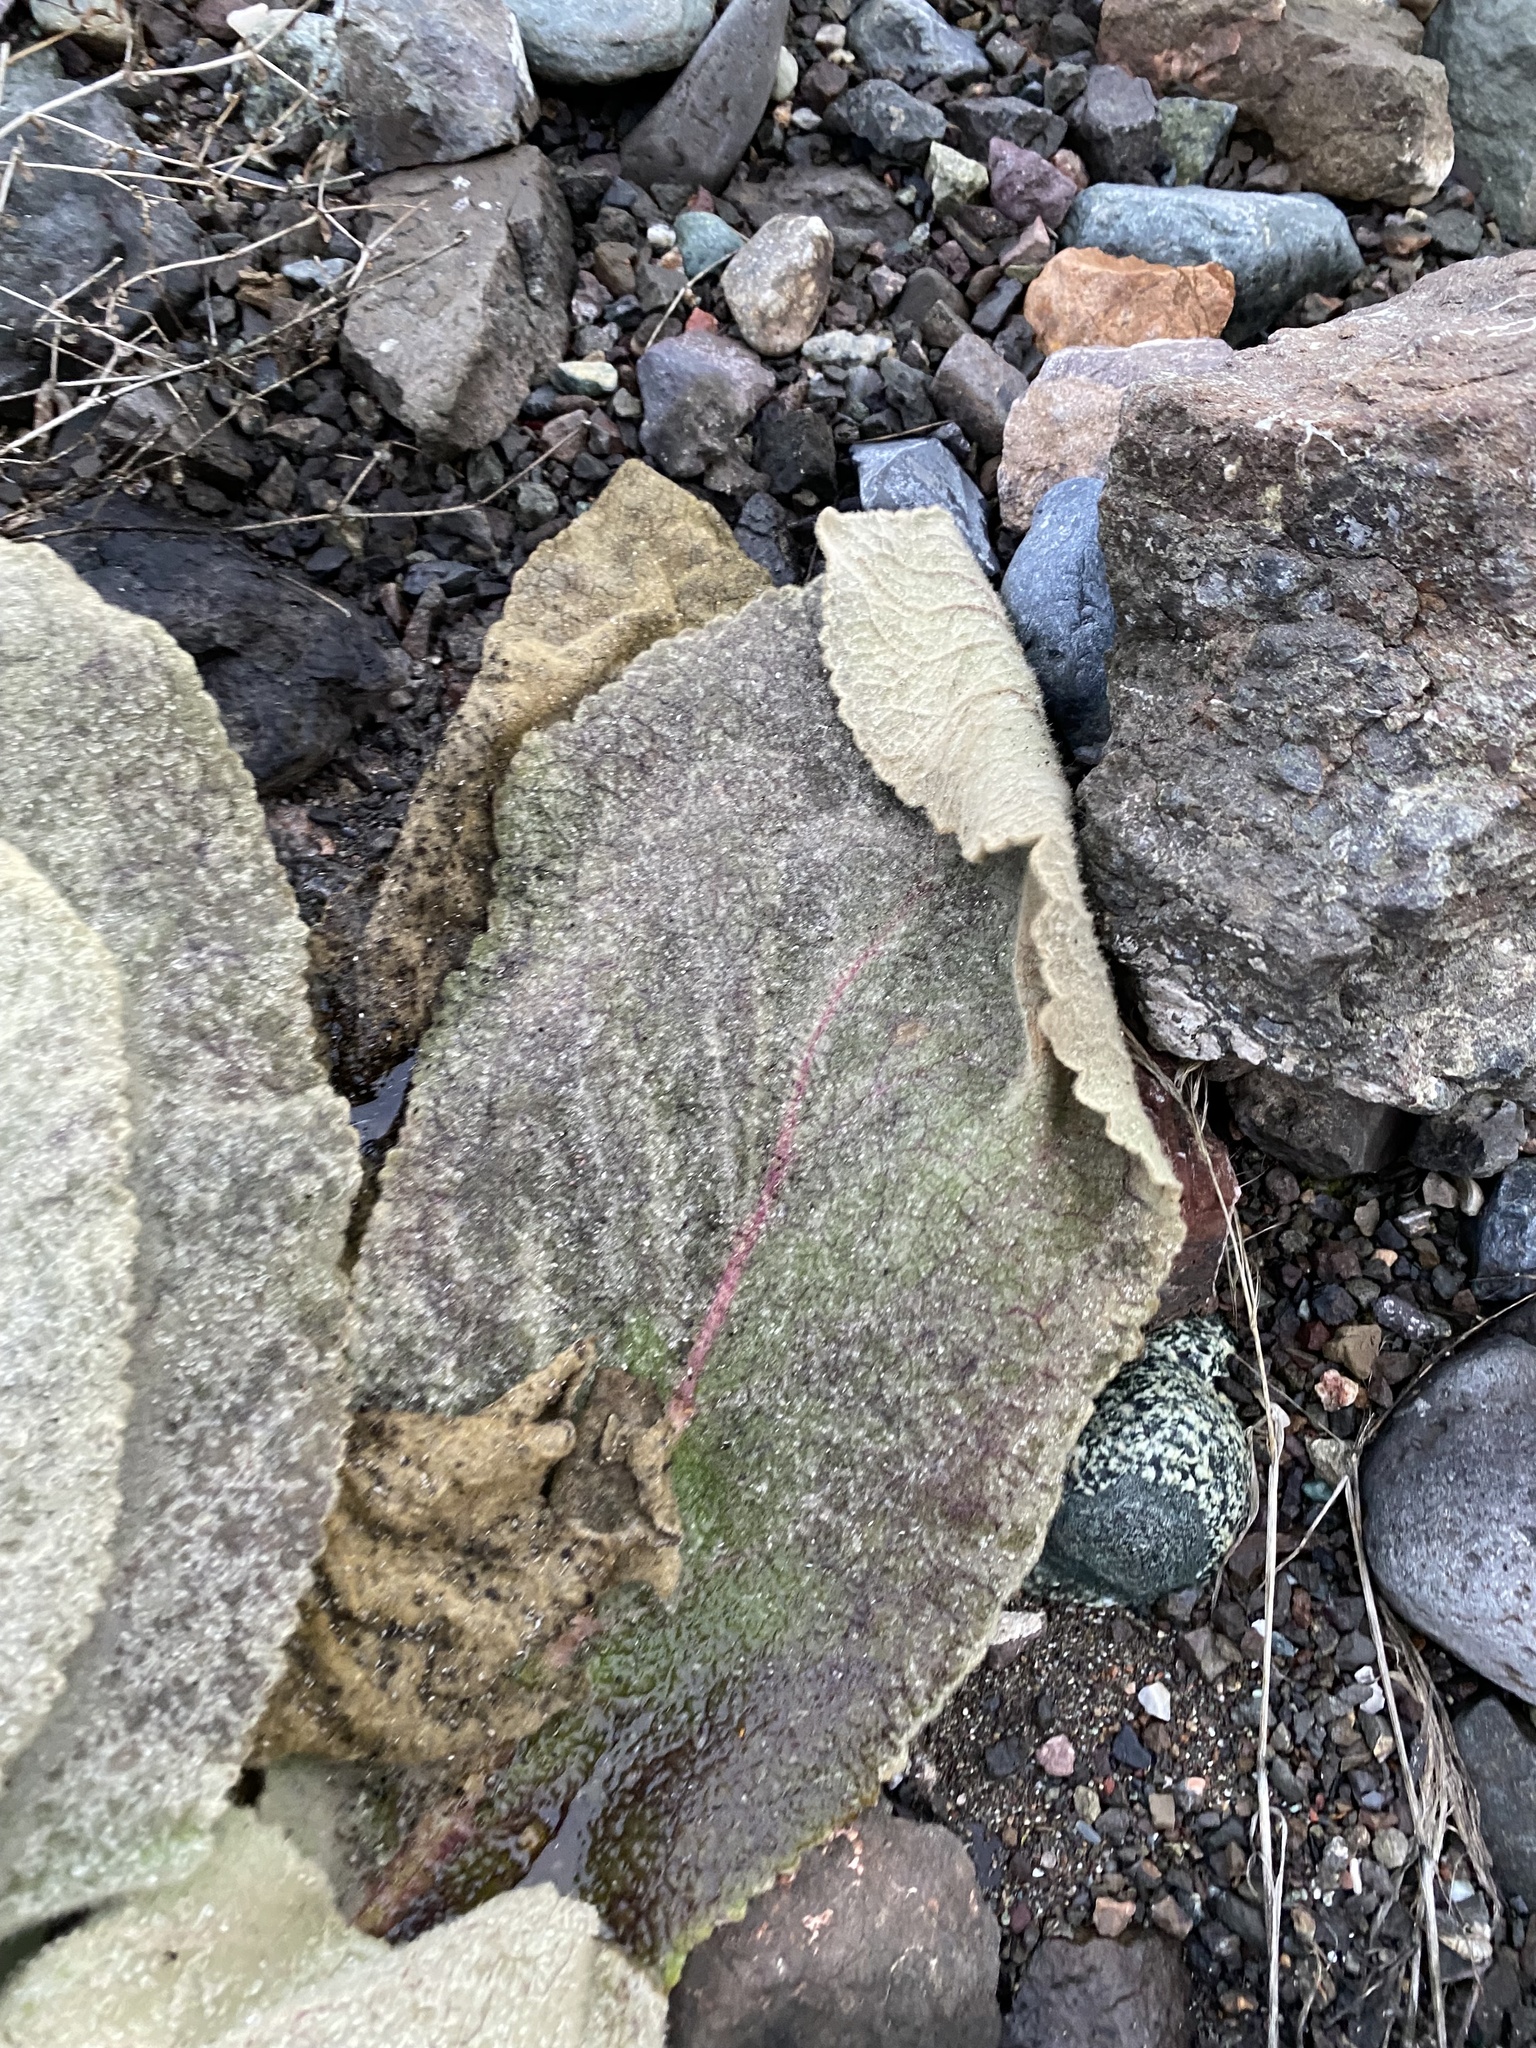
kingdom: Plantae
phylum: Tracheophyta
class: Magnoliopsida
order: Lamiales
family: Scrophulariaceae
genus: Verbascum
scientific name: Verbascum thapsus
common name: Common mullein
